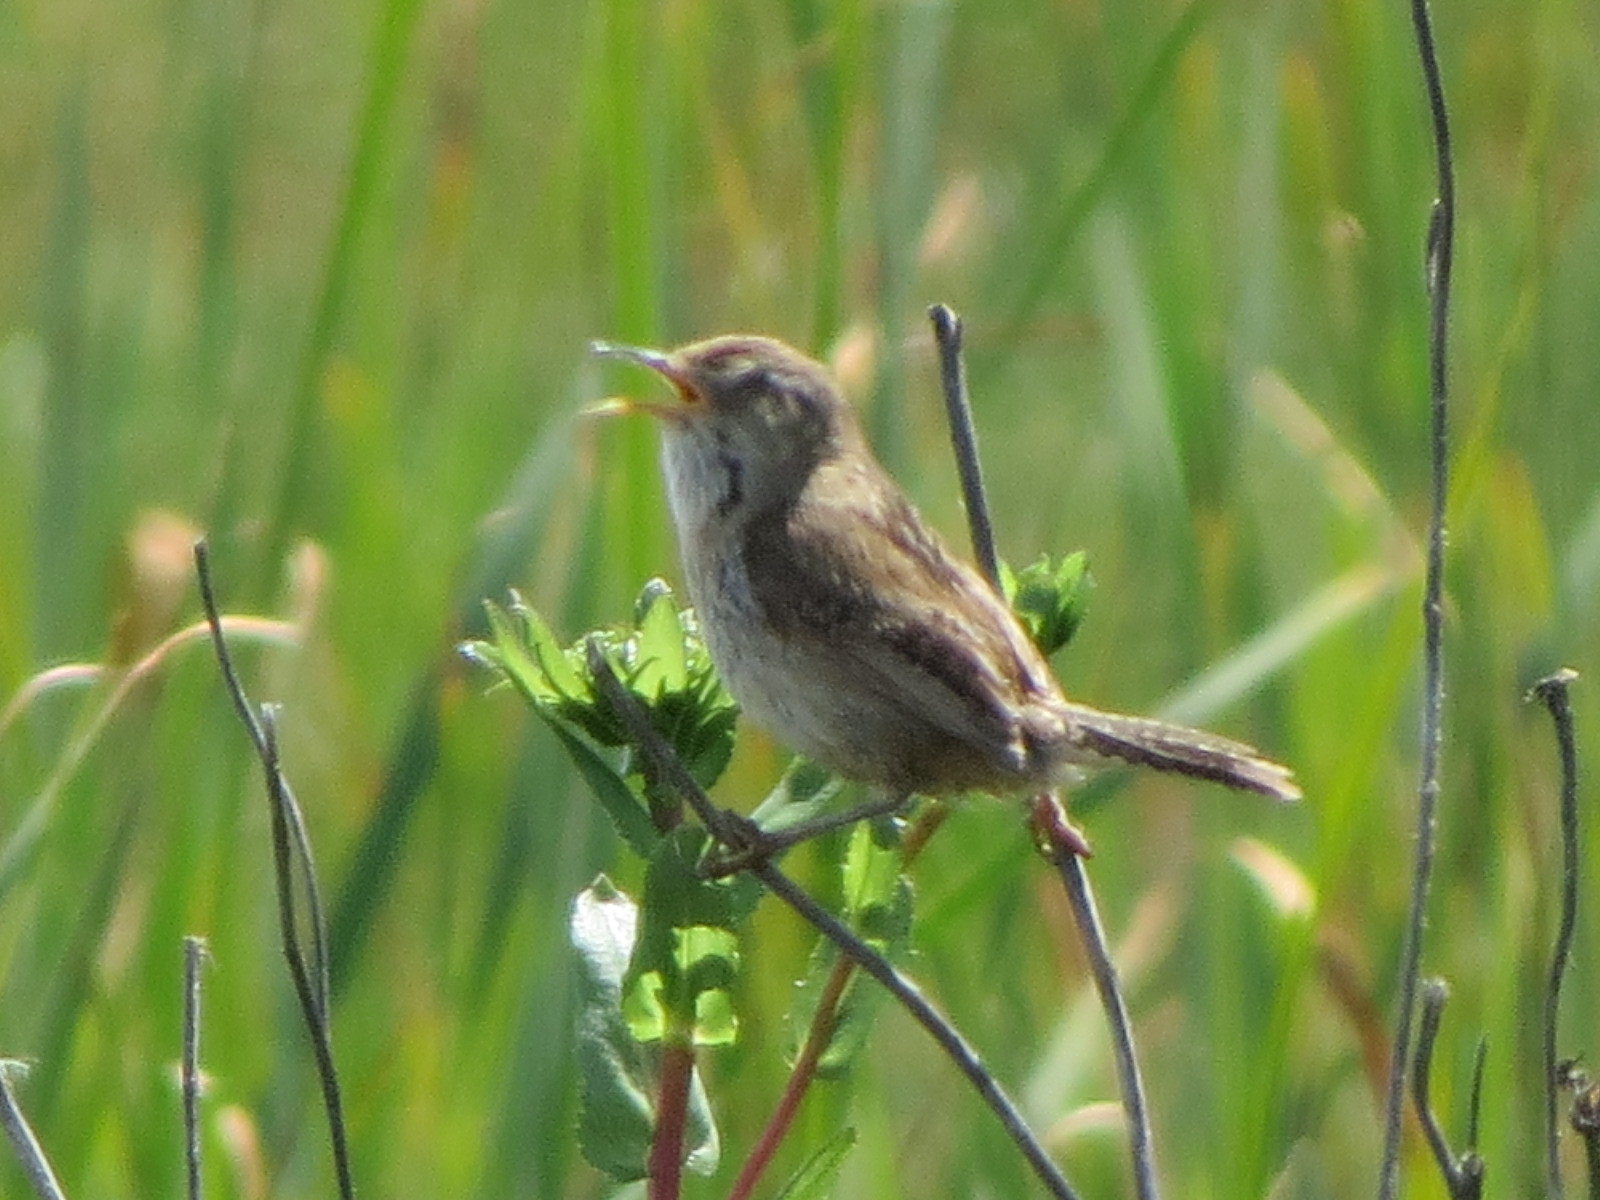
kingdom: Animalia
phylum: Chordata
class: Aves
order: Passeriformes
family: Troglodytidae
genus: Cistothorus
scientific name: Cistothorus palustris
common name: Marsh wren
